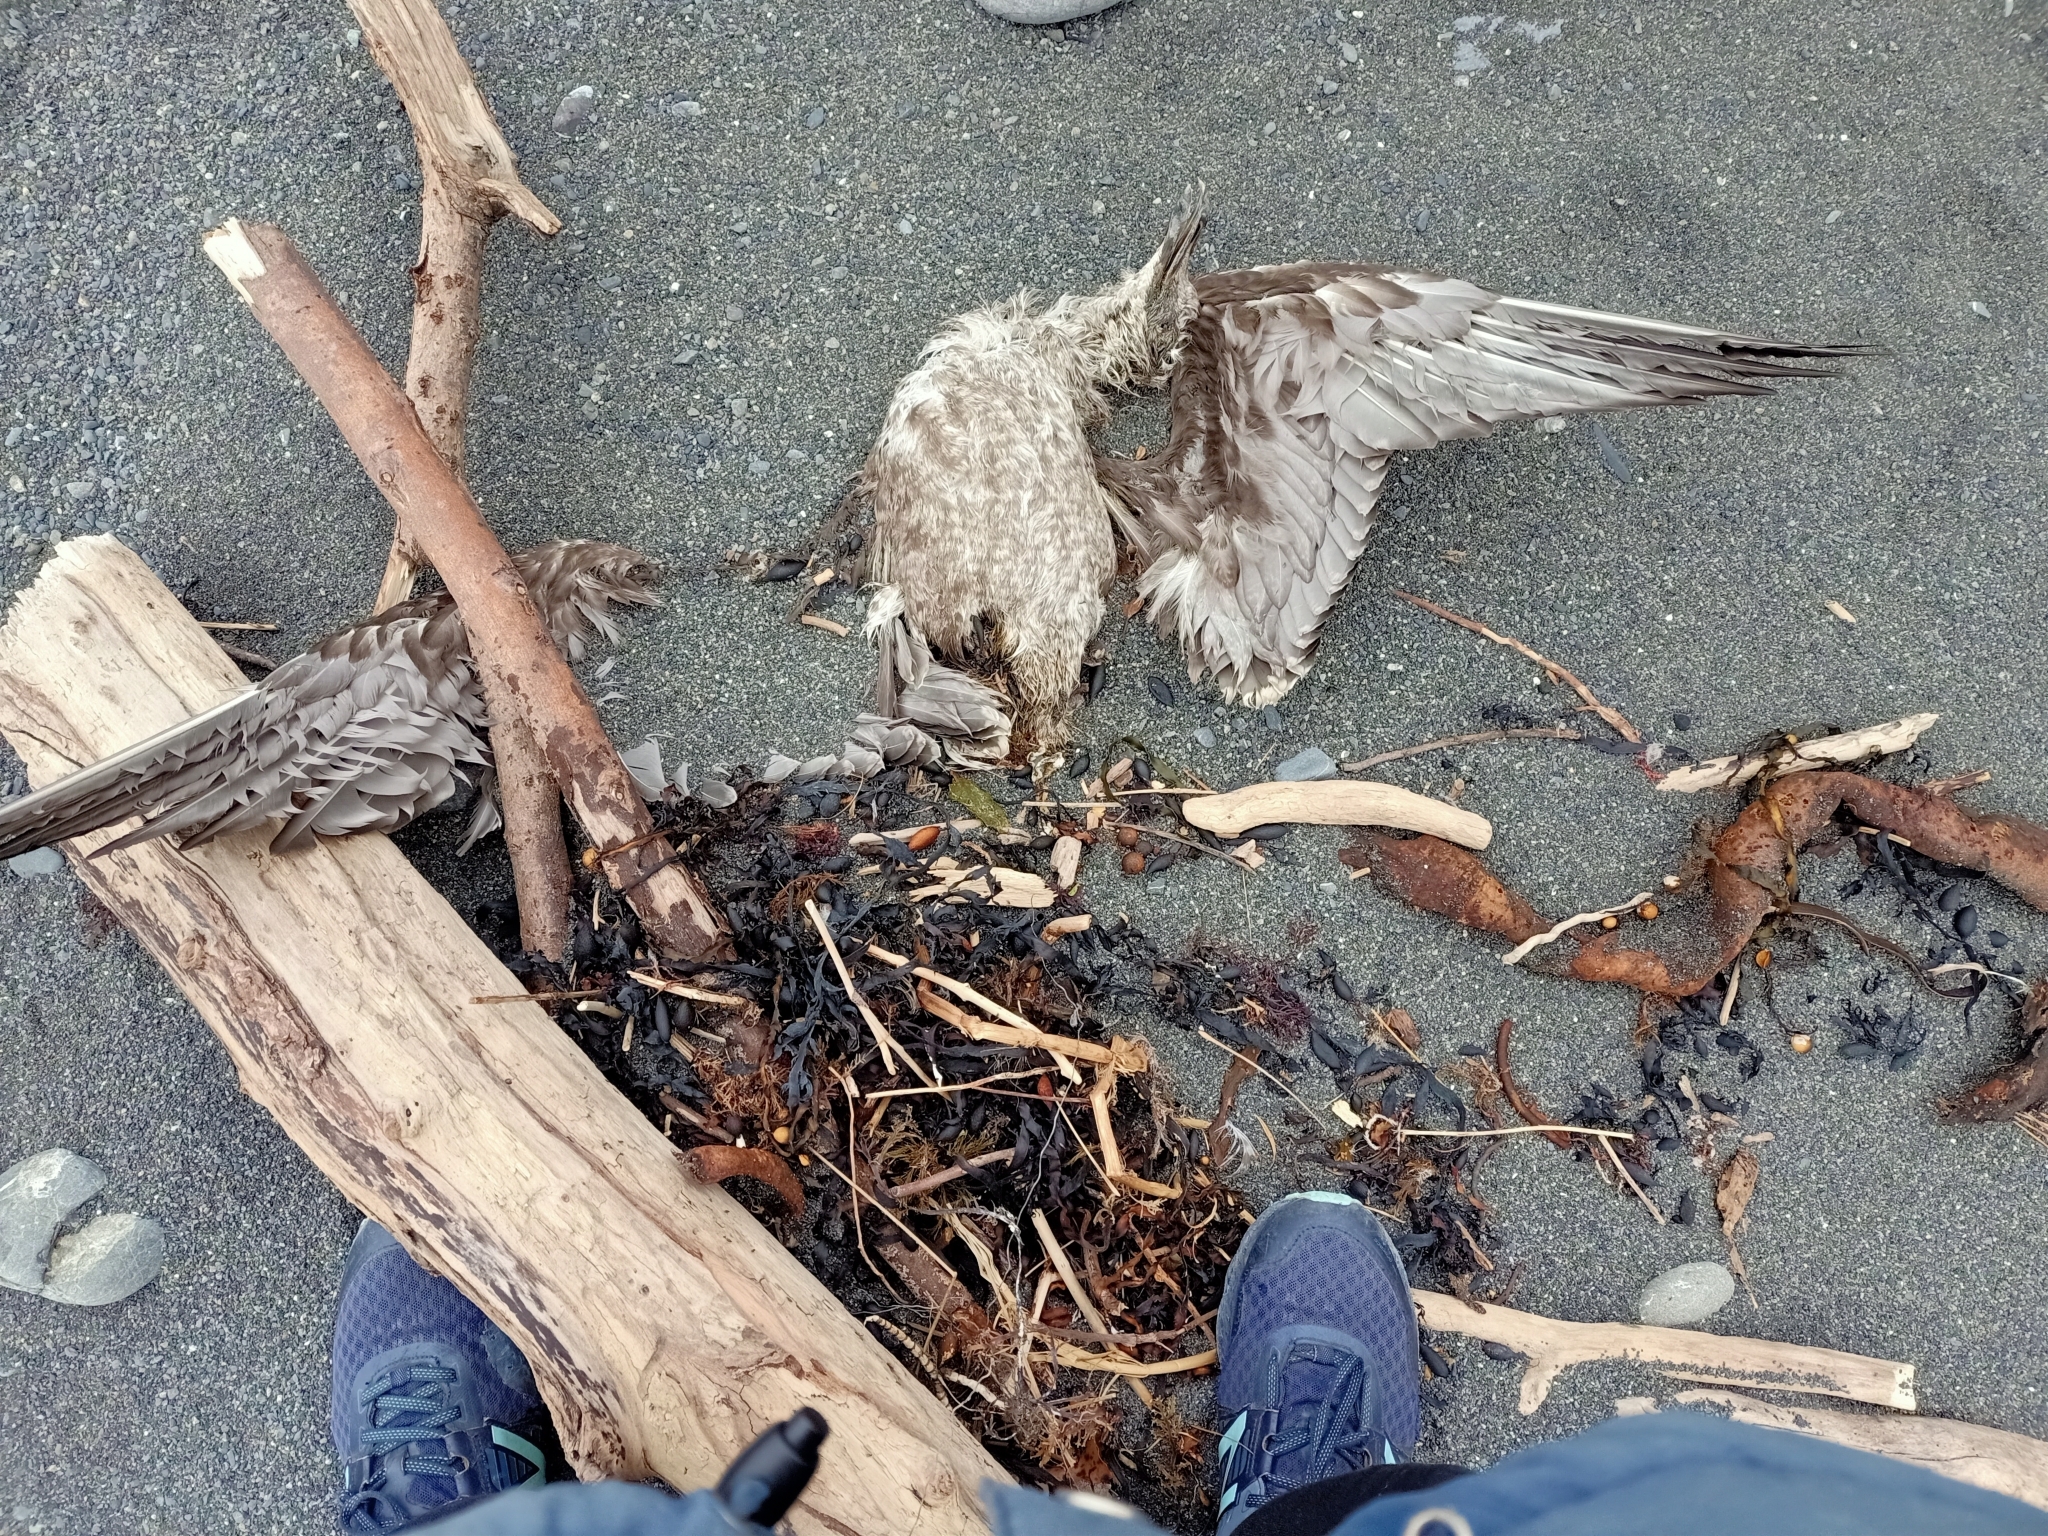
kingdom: Animalia
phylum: Chordata
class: Aves
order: Charadriiformes
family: Laridae
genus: Larus
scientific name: Larus dominicanus
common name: Kelp gull
